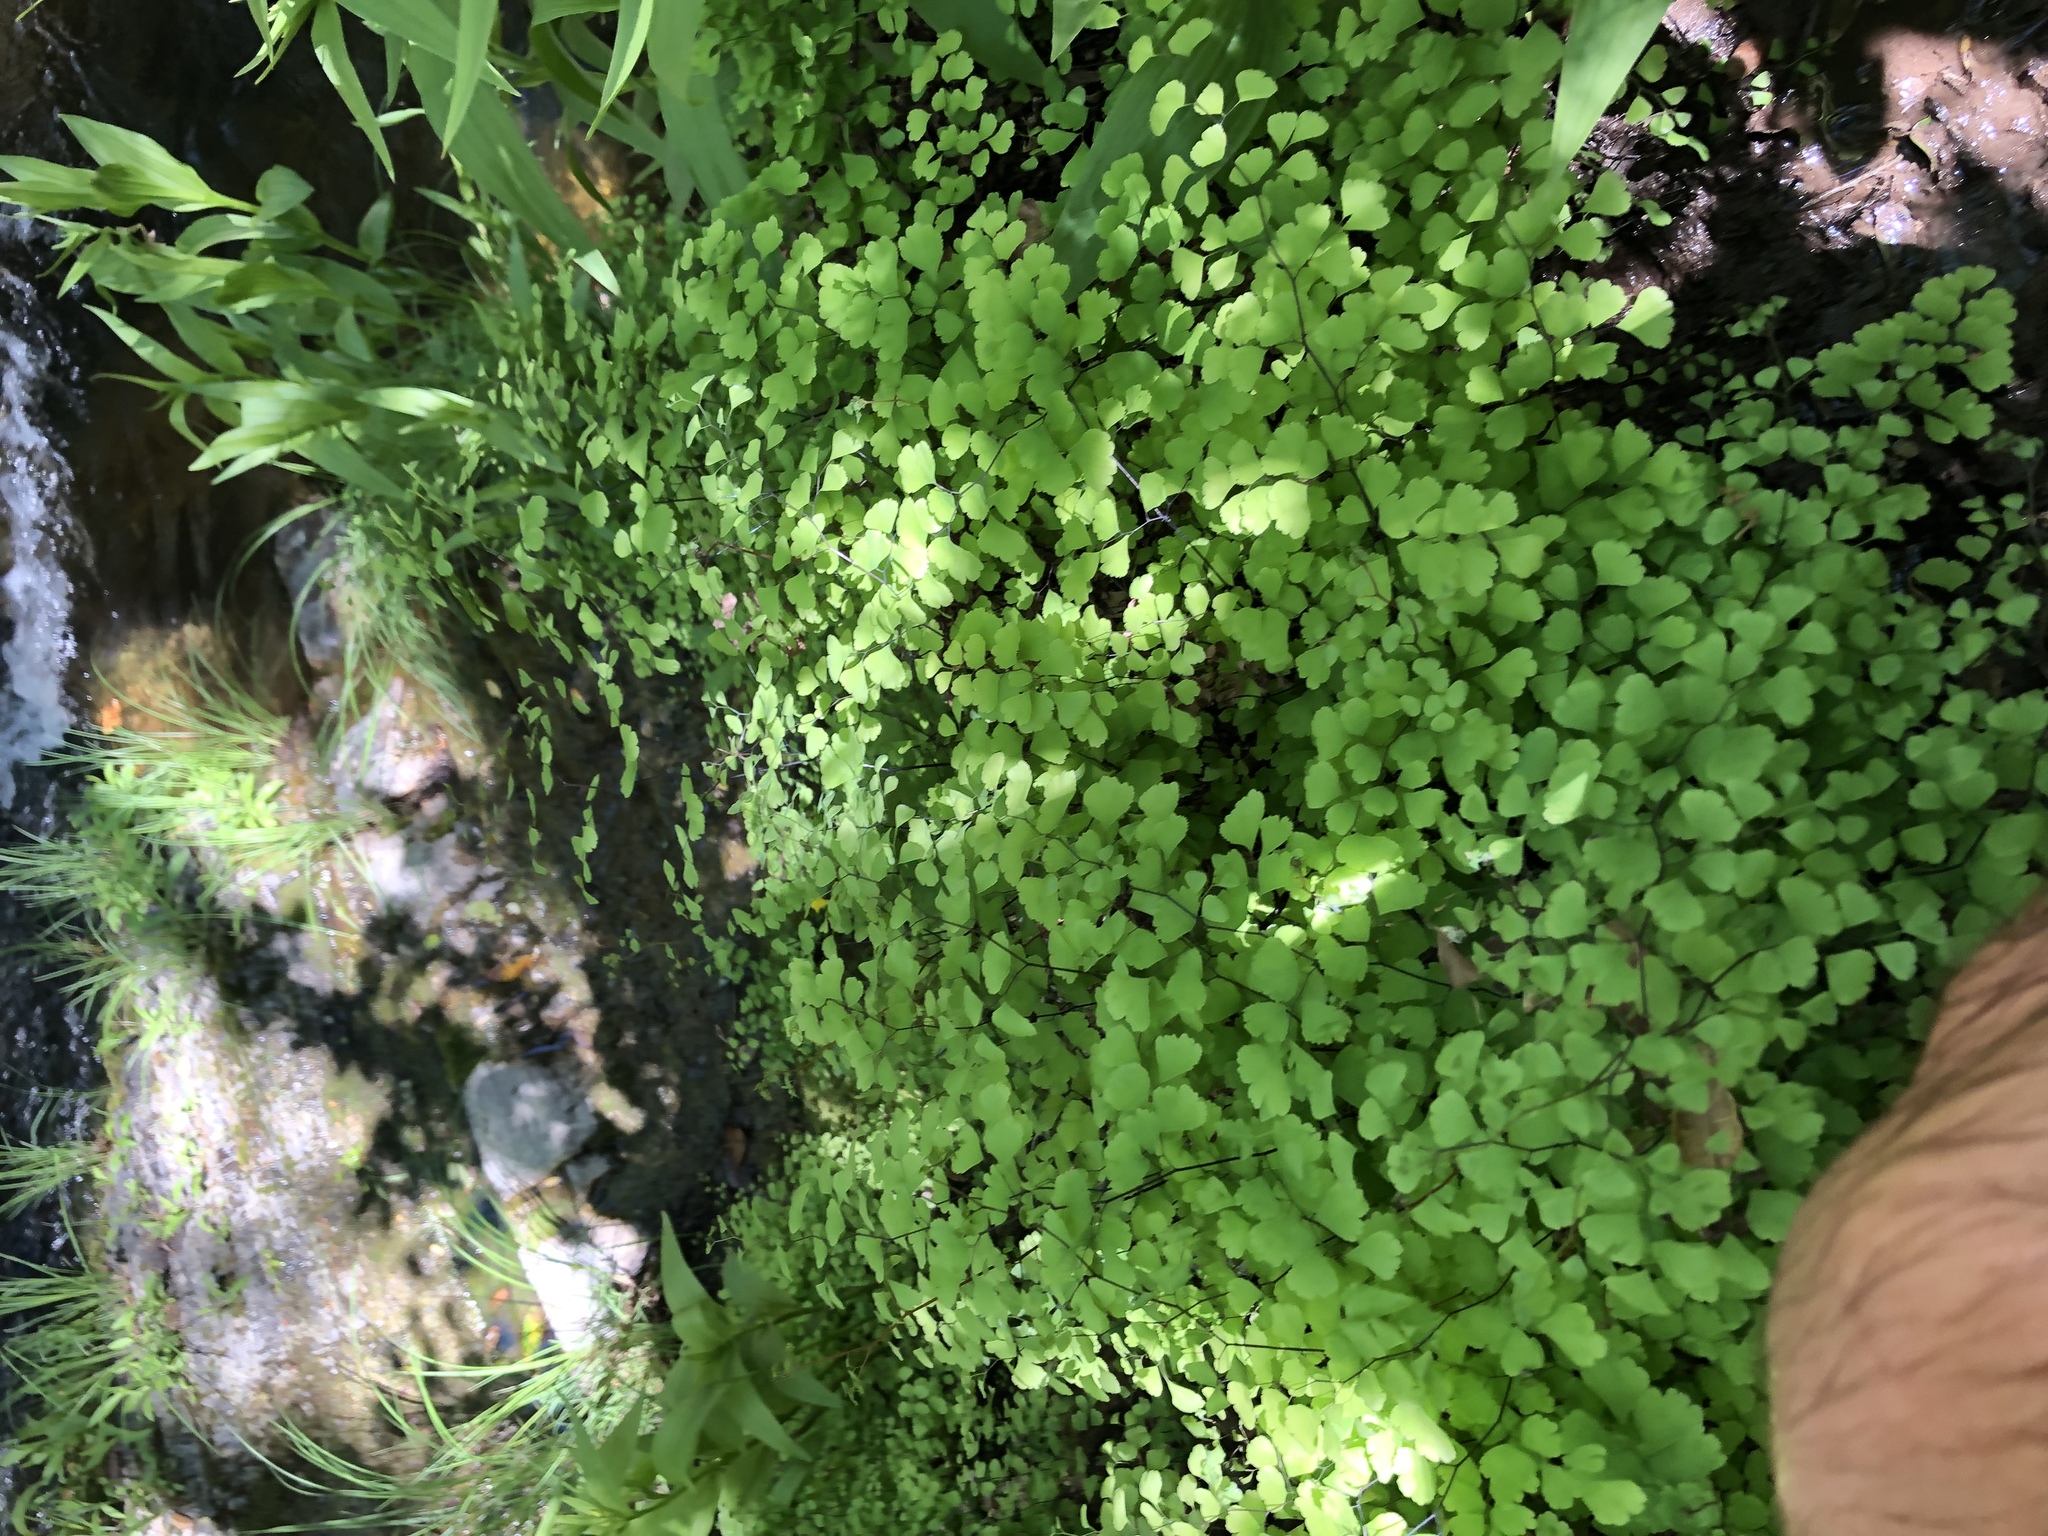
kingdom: Plantae
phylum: Tracheophyta
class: Polypodiopsida
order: Polypodiales
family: Pteridaceae
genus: Adiantum
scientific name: Adiantum jordanii
